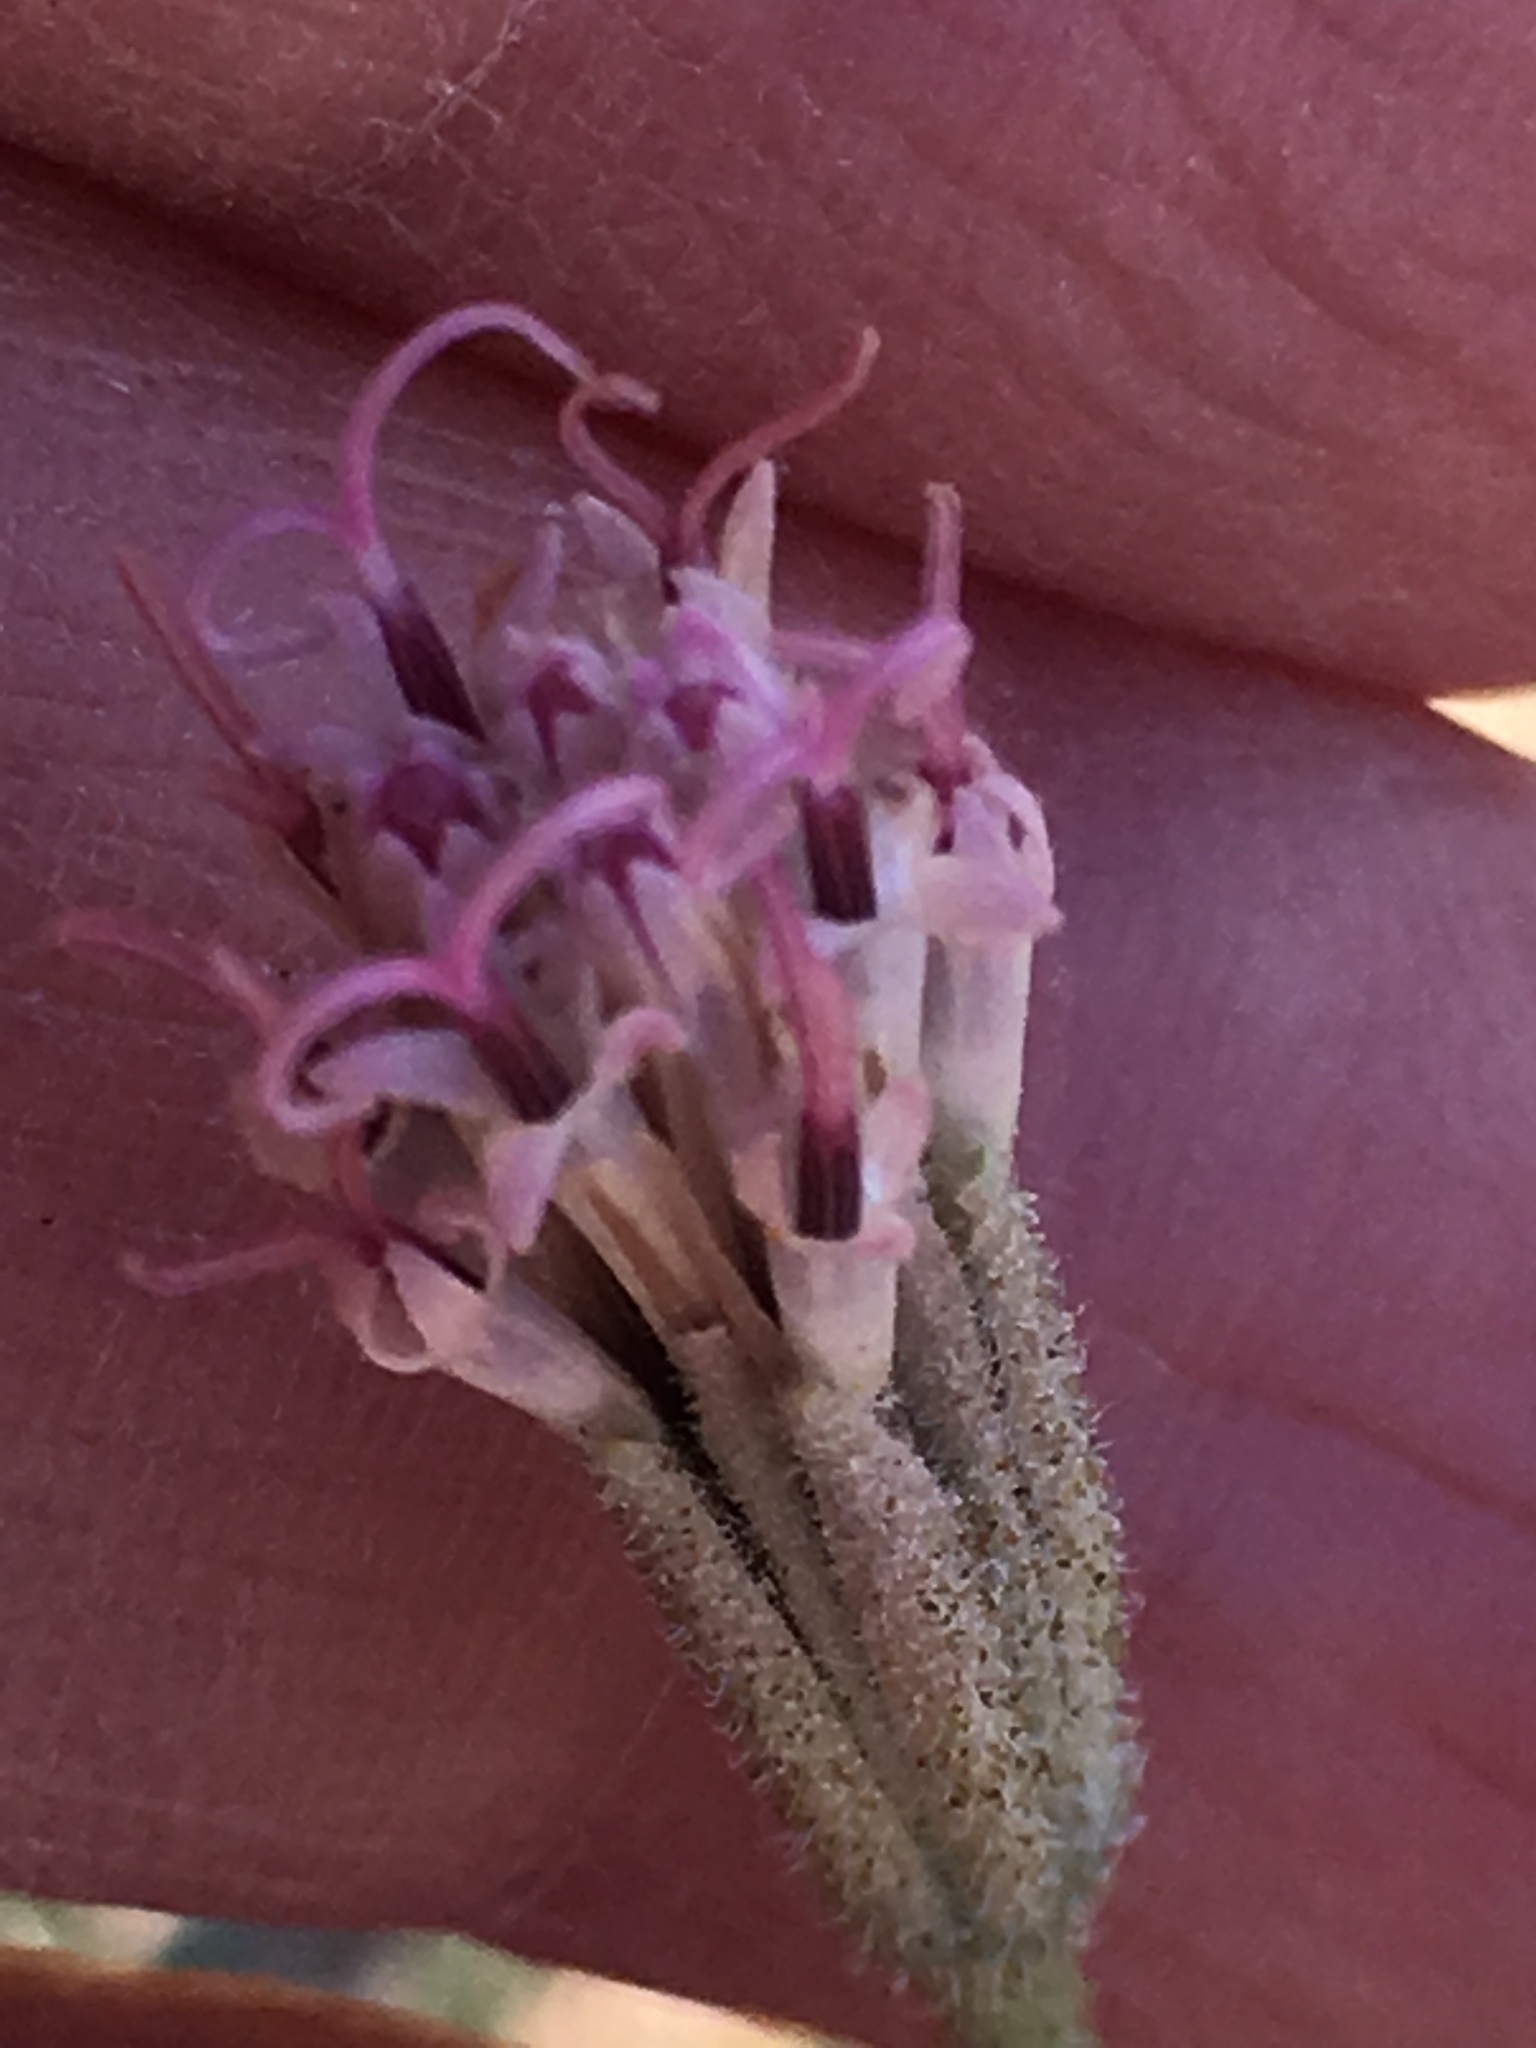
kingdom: Plantae
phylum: Tracheophyta
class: Magnoliopsida
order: Asterales
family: Asteraceae
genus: Palafoxia
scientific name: Palafoxia arida
